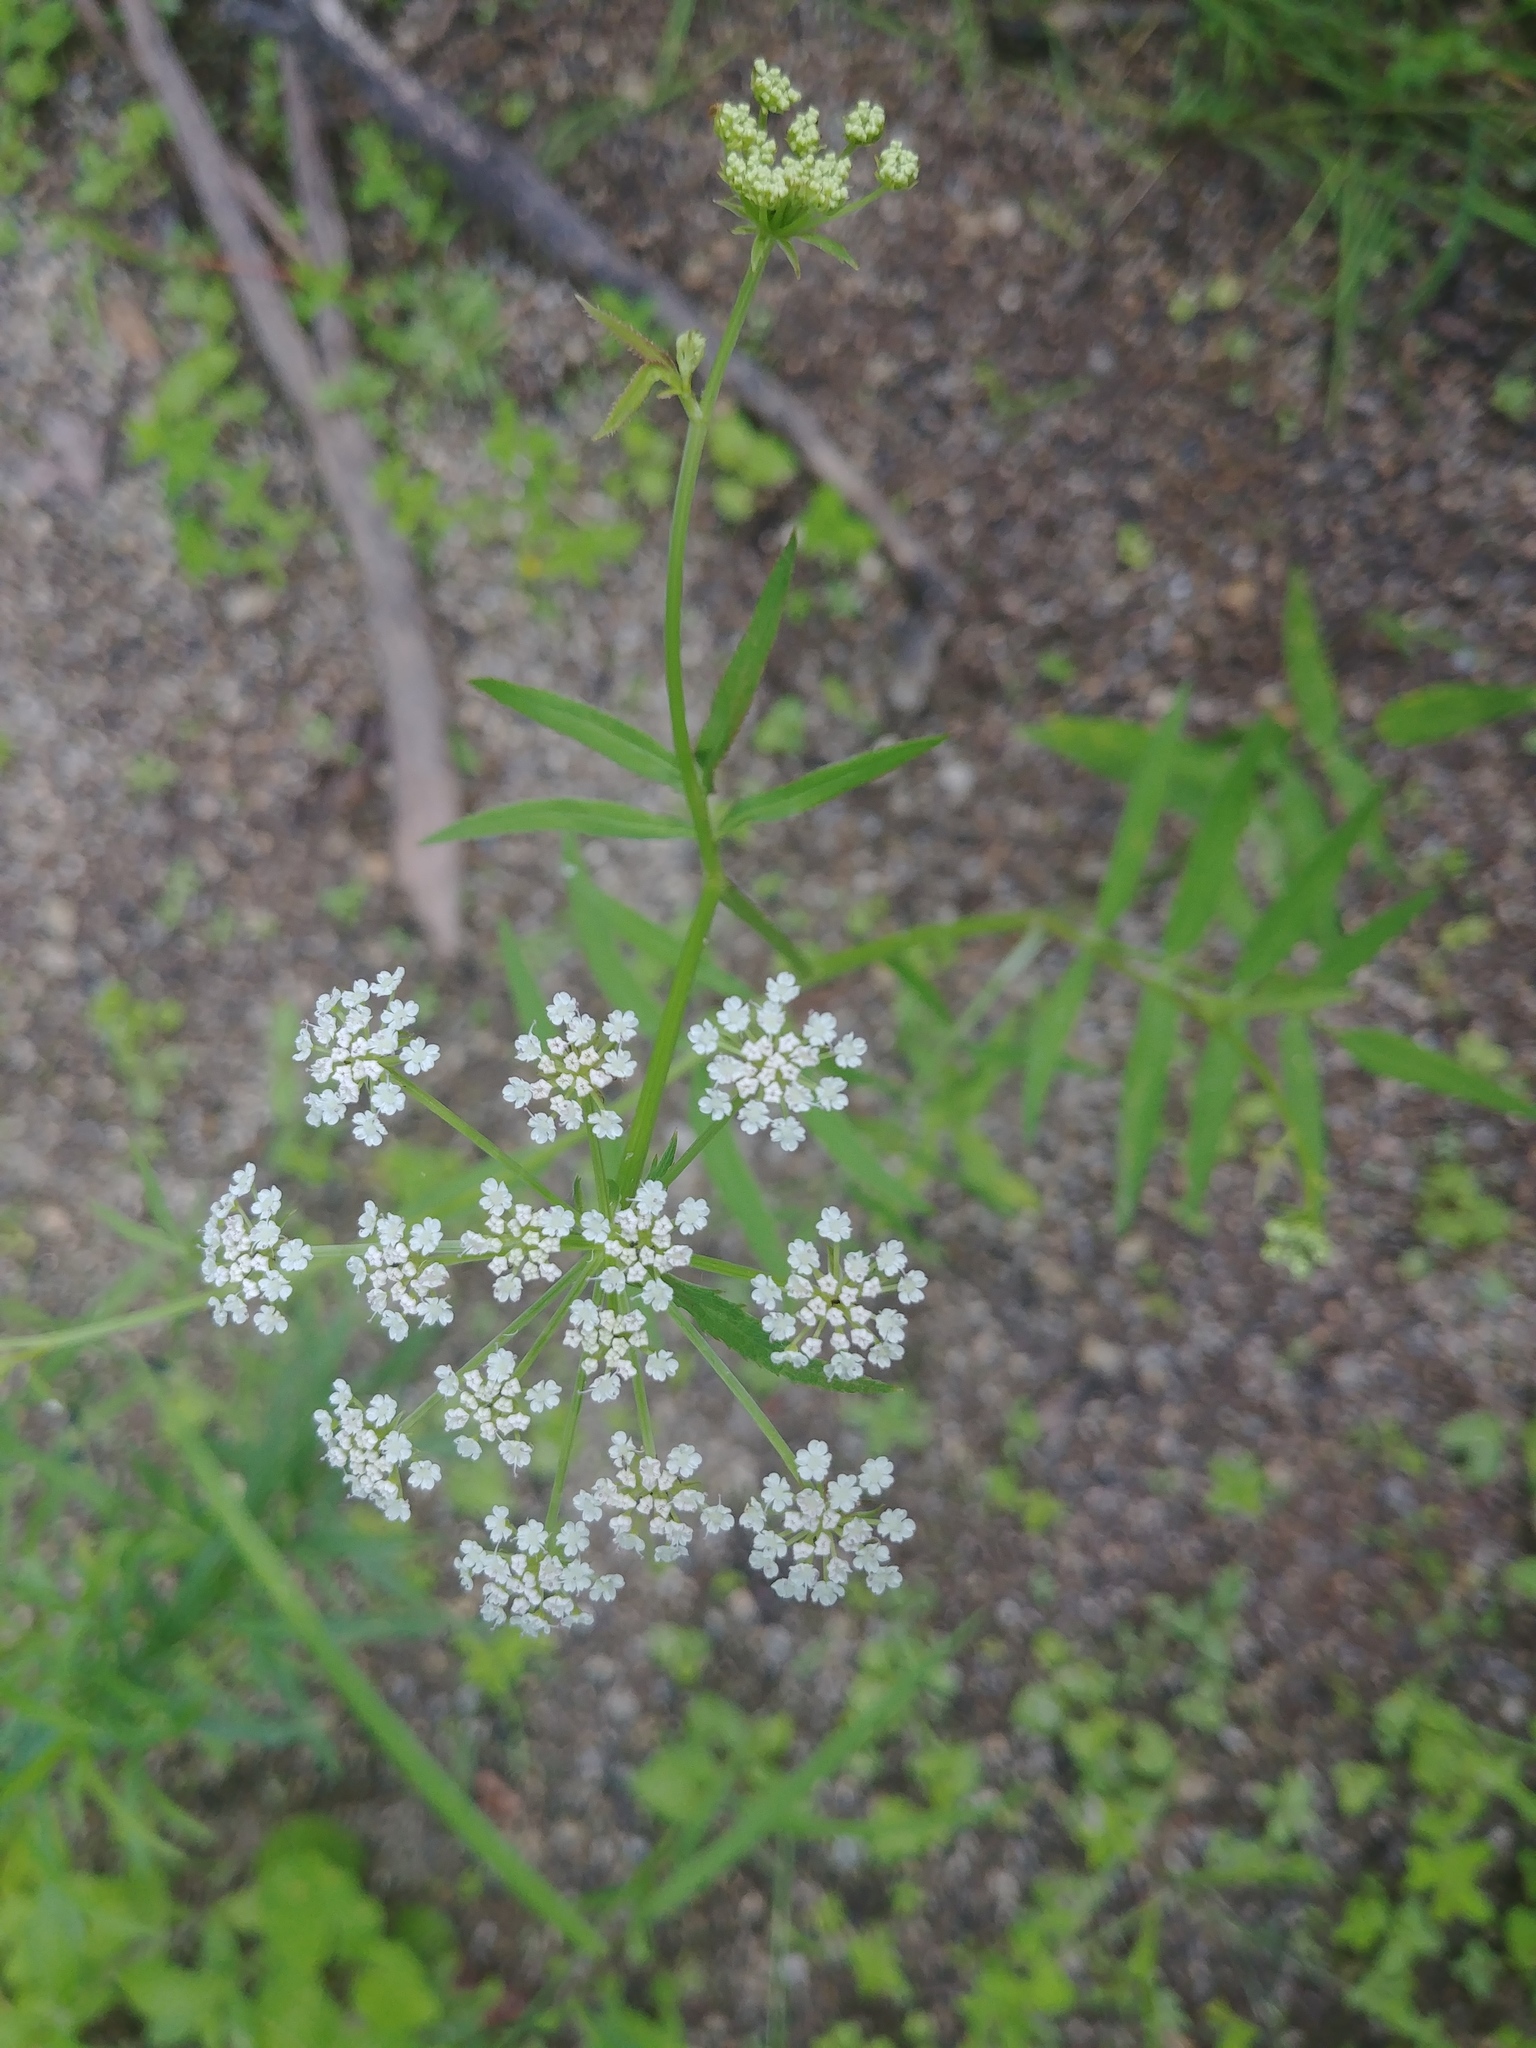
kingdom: Plantae
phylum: Tracheophyta
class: Magnoliopsida
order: Apiales
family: Apiaceae
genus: Sium
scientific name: Sium suave
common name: Hemlock water-parsnip
